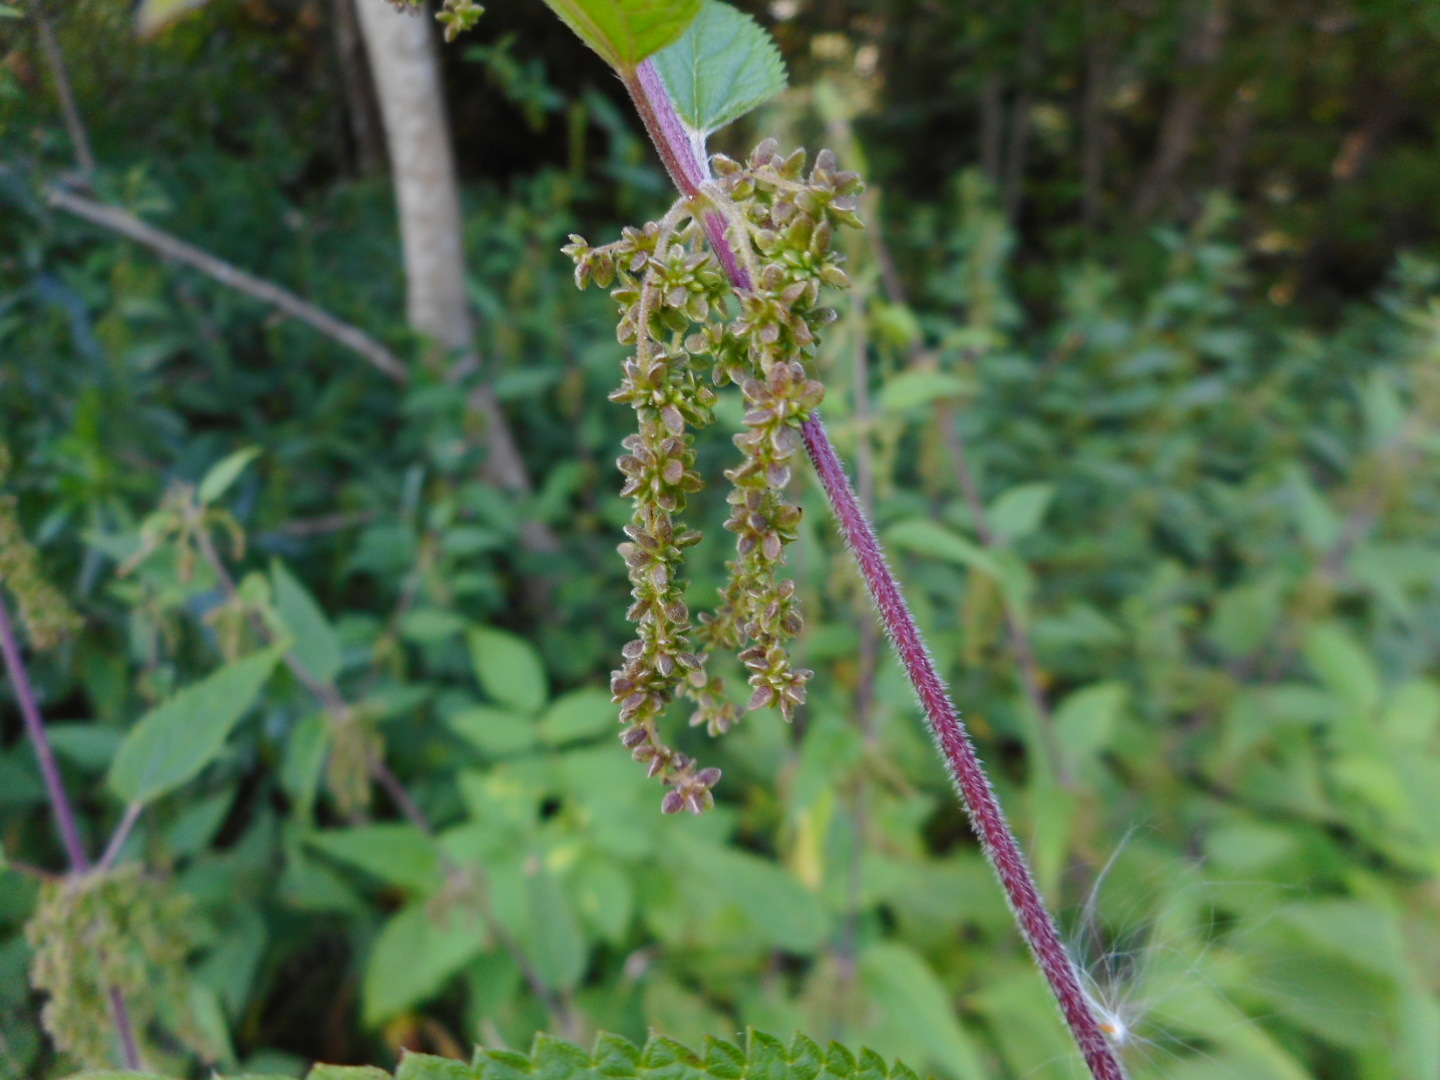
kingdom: Plantae
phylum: Tracheophyta
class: Magnoliopsida
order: Rosales
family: Urticaceae
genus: Urtica
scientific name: Urtica dioica
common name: Common nettle
